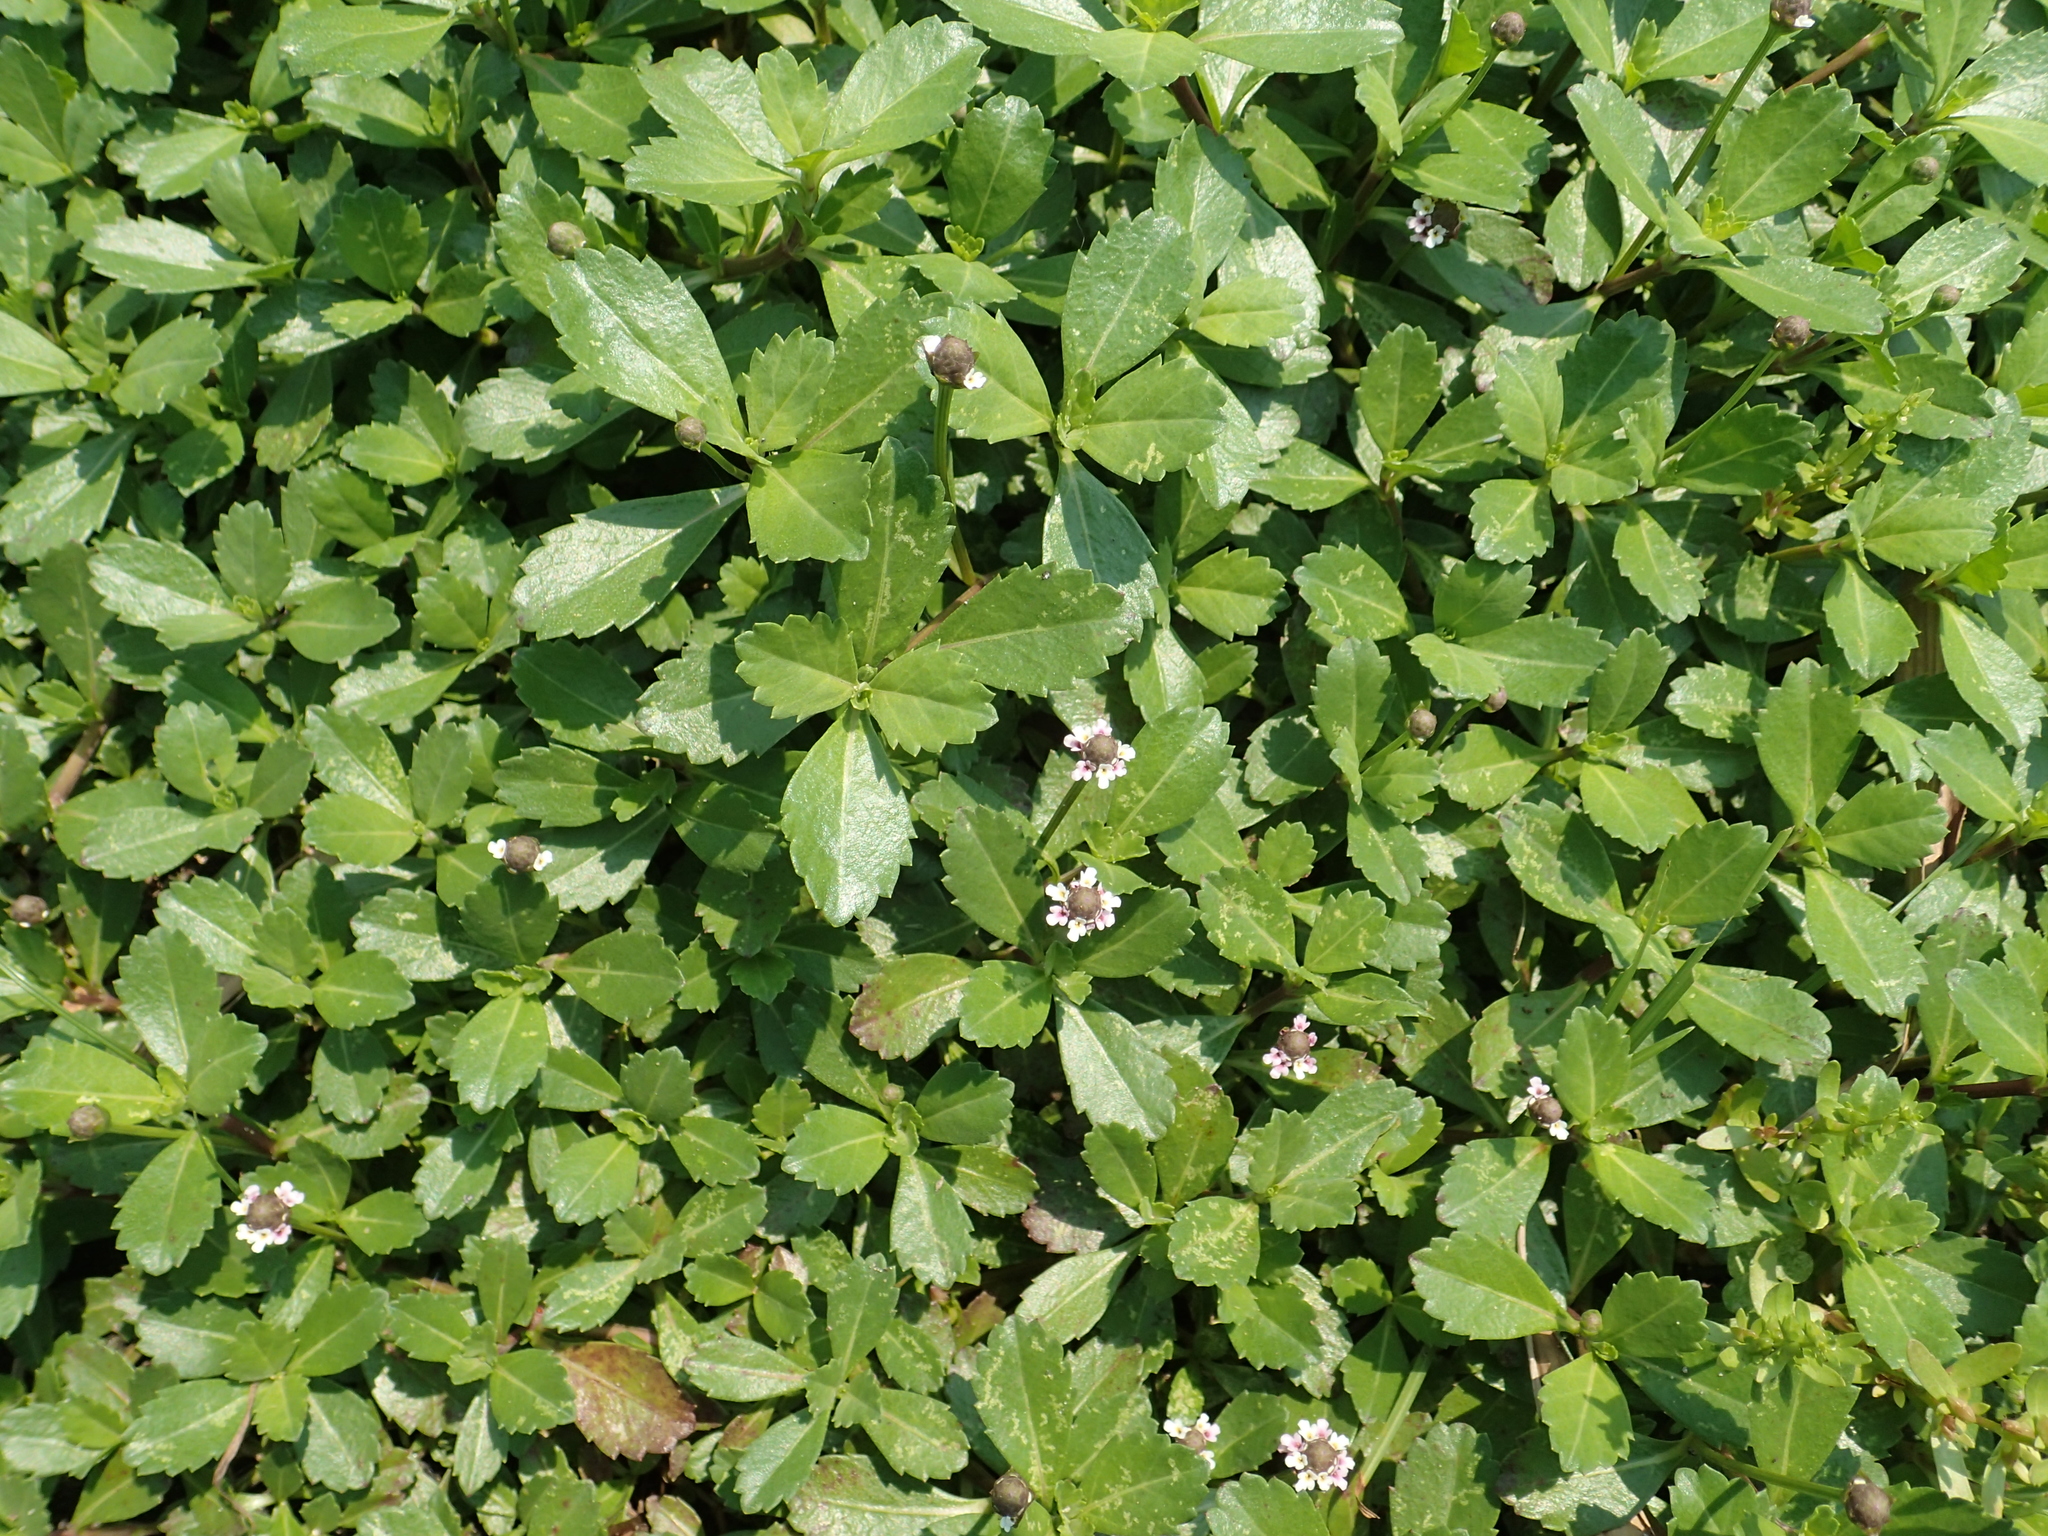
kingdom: Plantae
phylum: Tracheophyta
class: Magnoliopsida
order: Lamiales
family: Verbenaceae
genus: Phyla
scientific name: Phyla nodiflora
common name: Frogfruit
